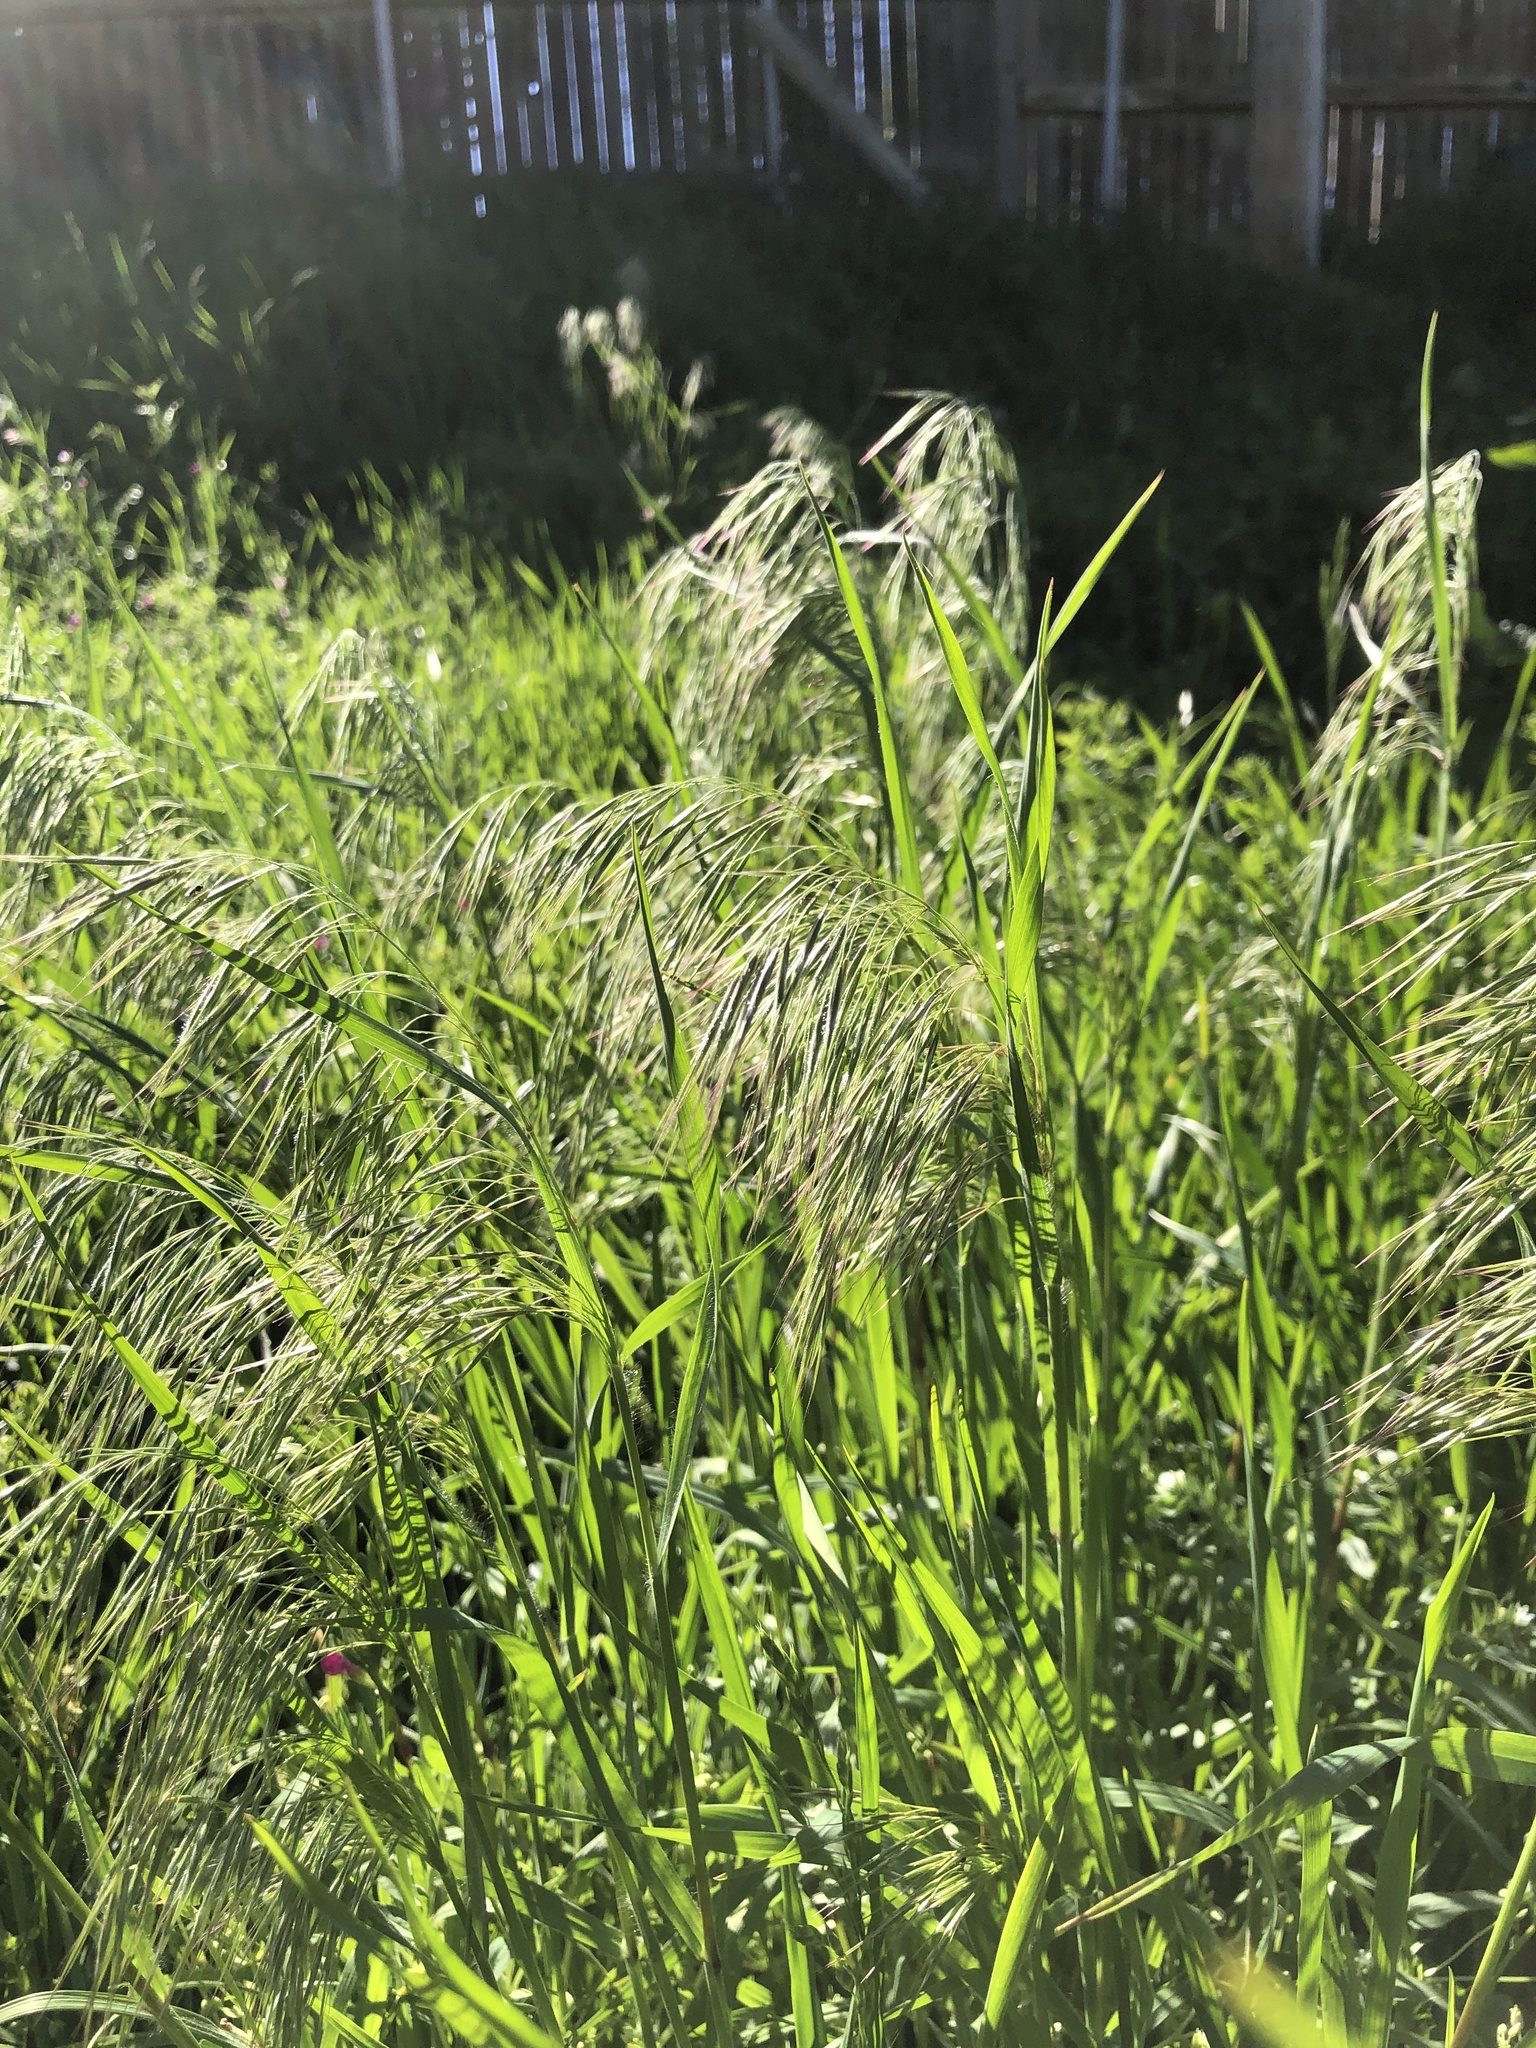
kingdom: Plantae
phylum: Tracheophyta
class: Liliopsida
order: Poales
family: Poaceae
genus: Bromus
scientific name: Bromus tectorum
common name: Cheatgrass
